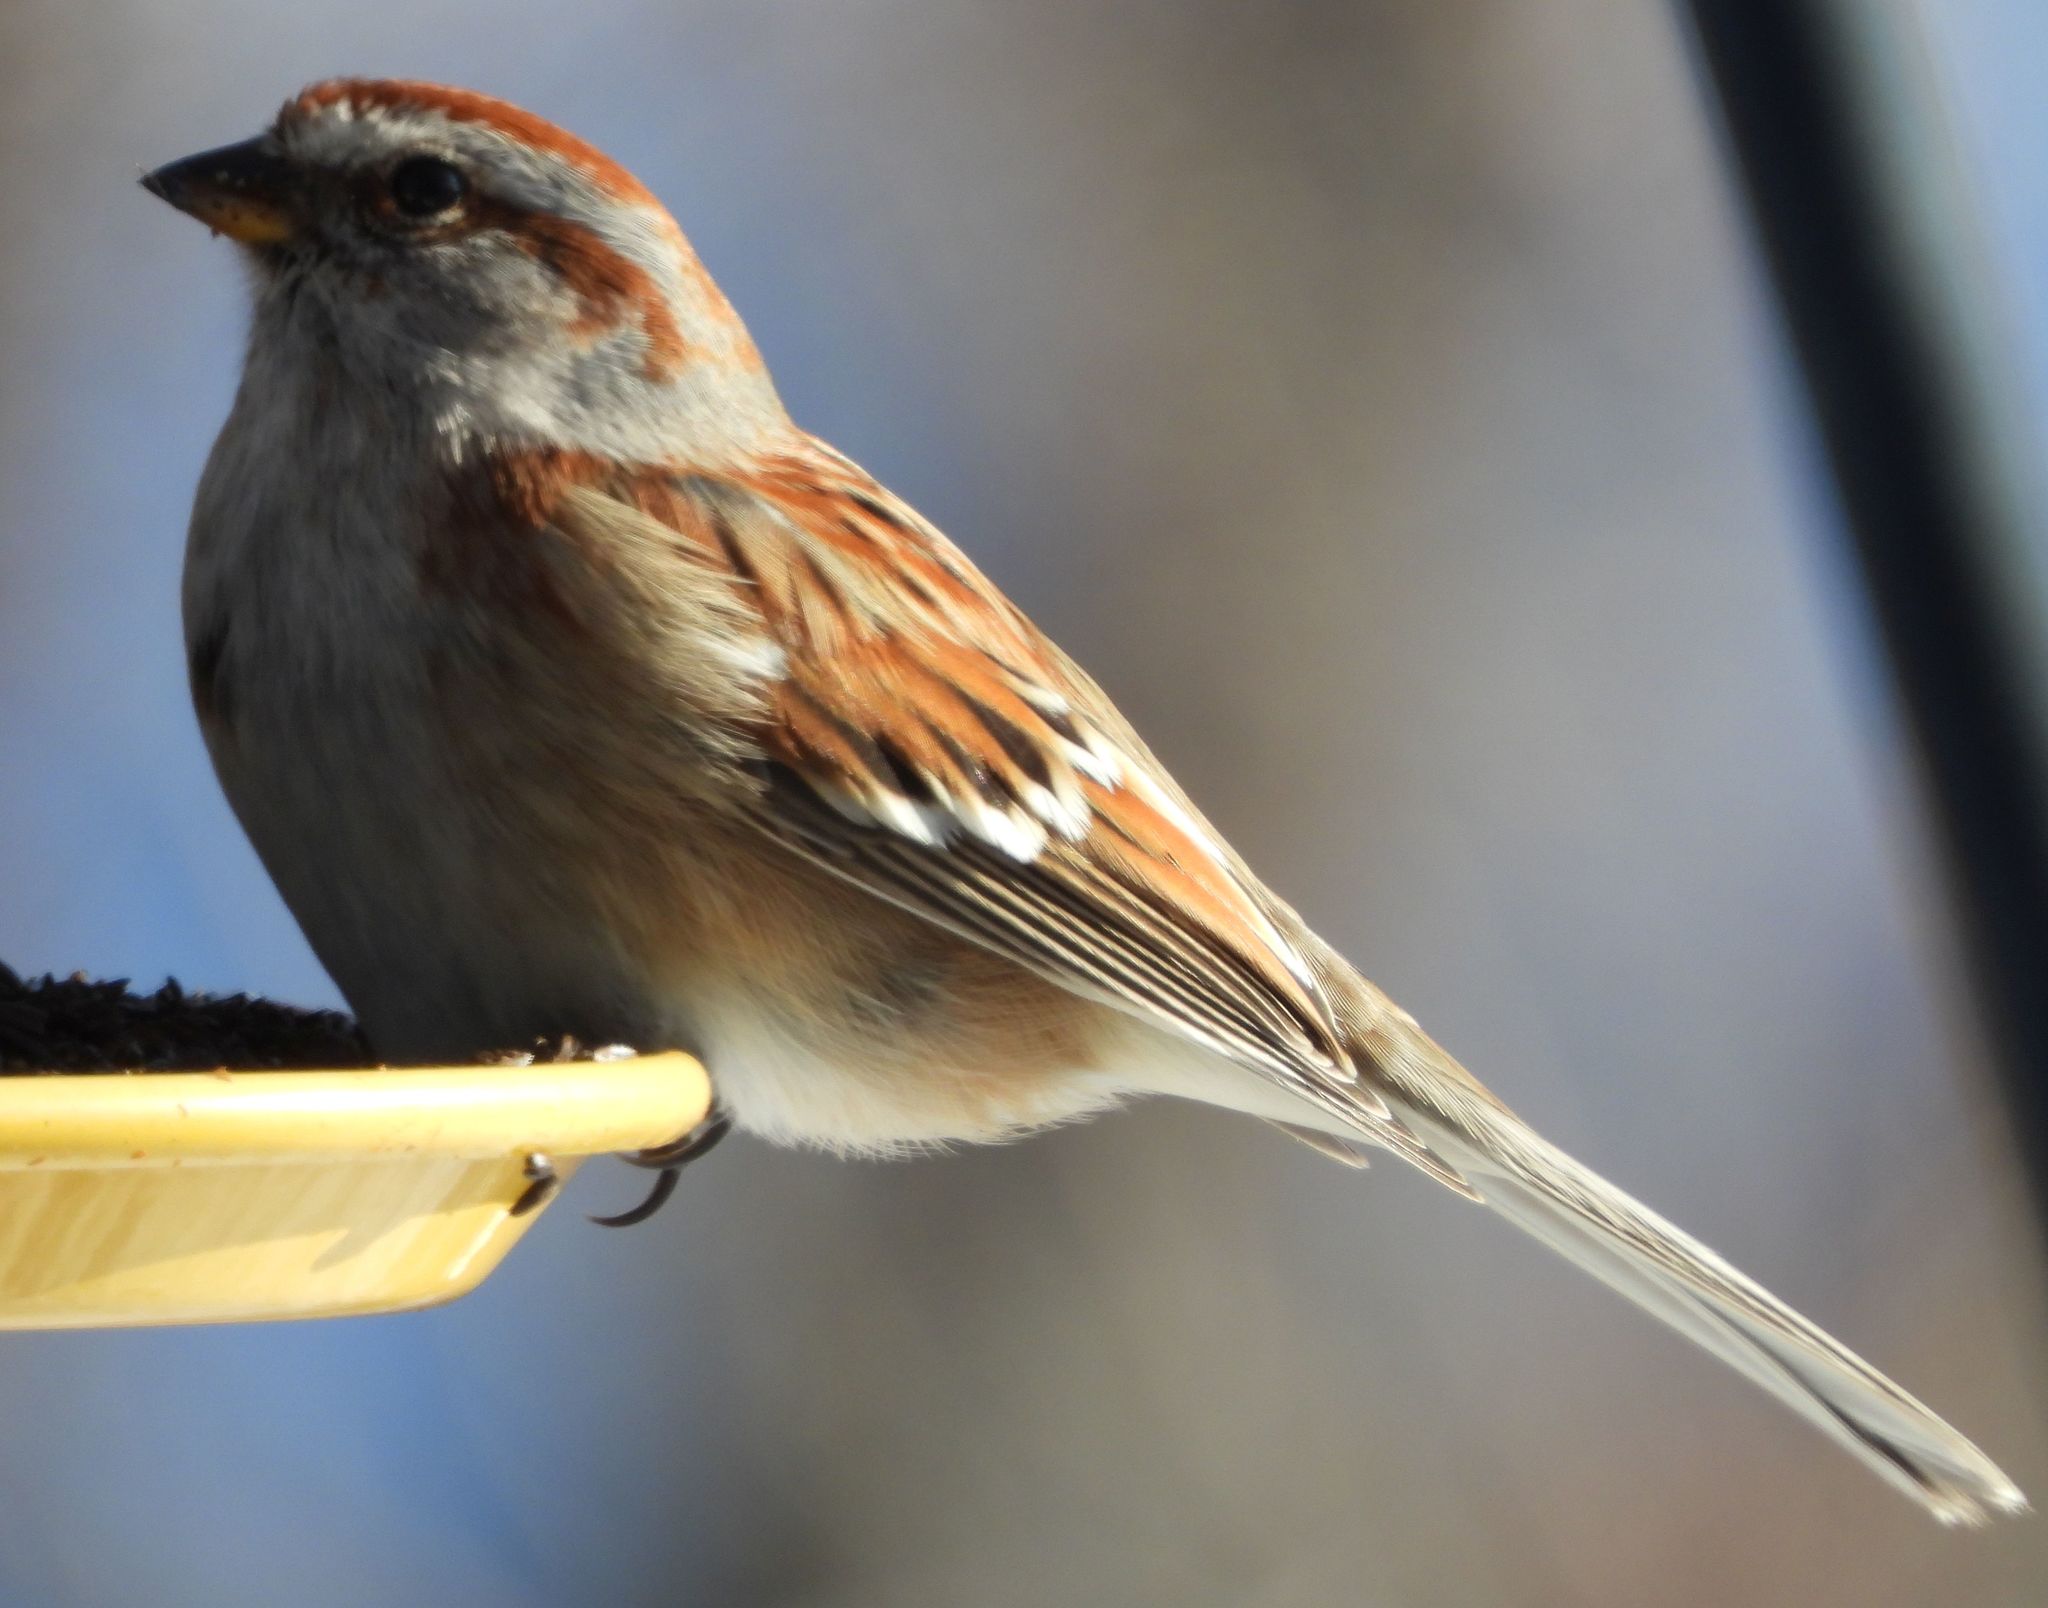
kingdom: Animalia
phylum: Chordata
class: Aves
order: Passeriformes
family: Passerellidae
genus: Spizelloides
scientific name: Spizelloides arborea
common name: American tree sparrow
